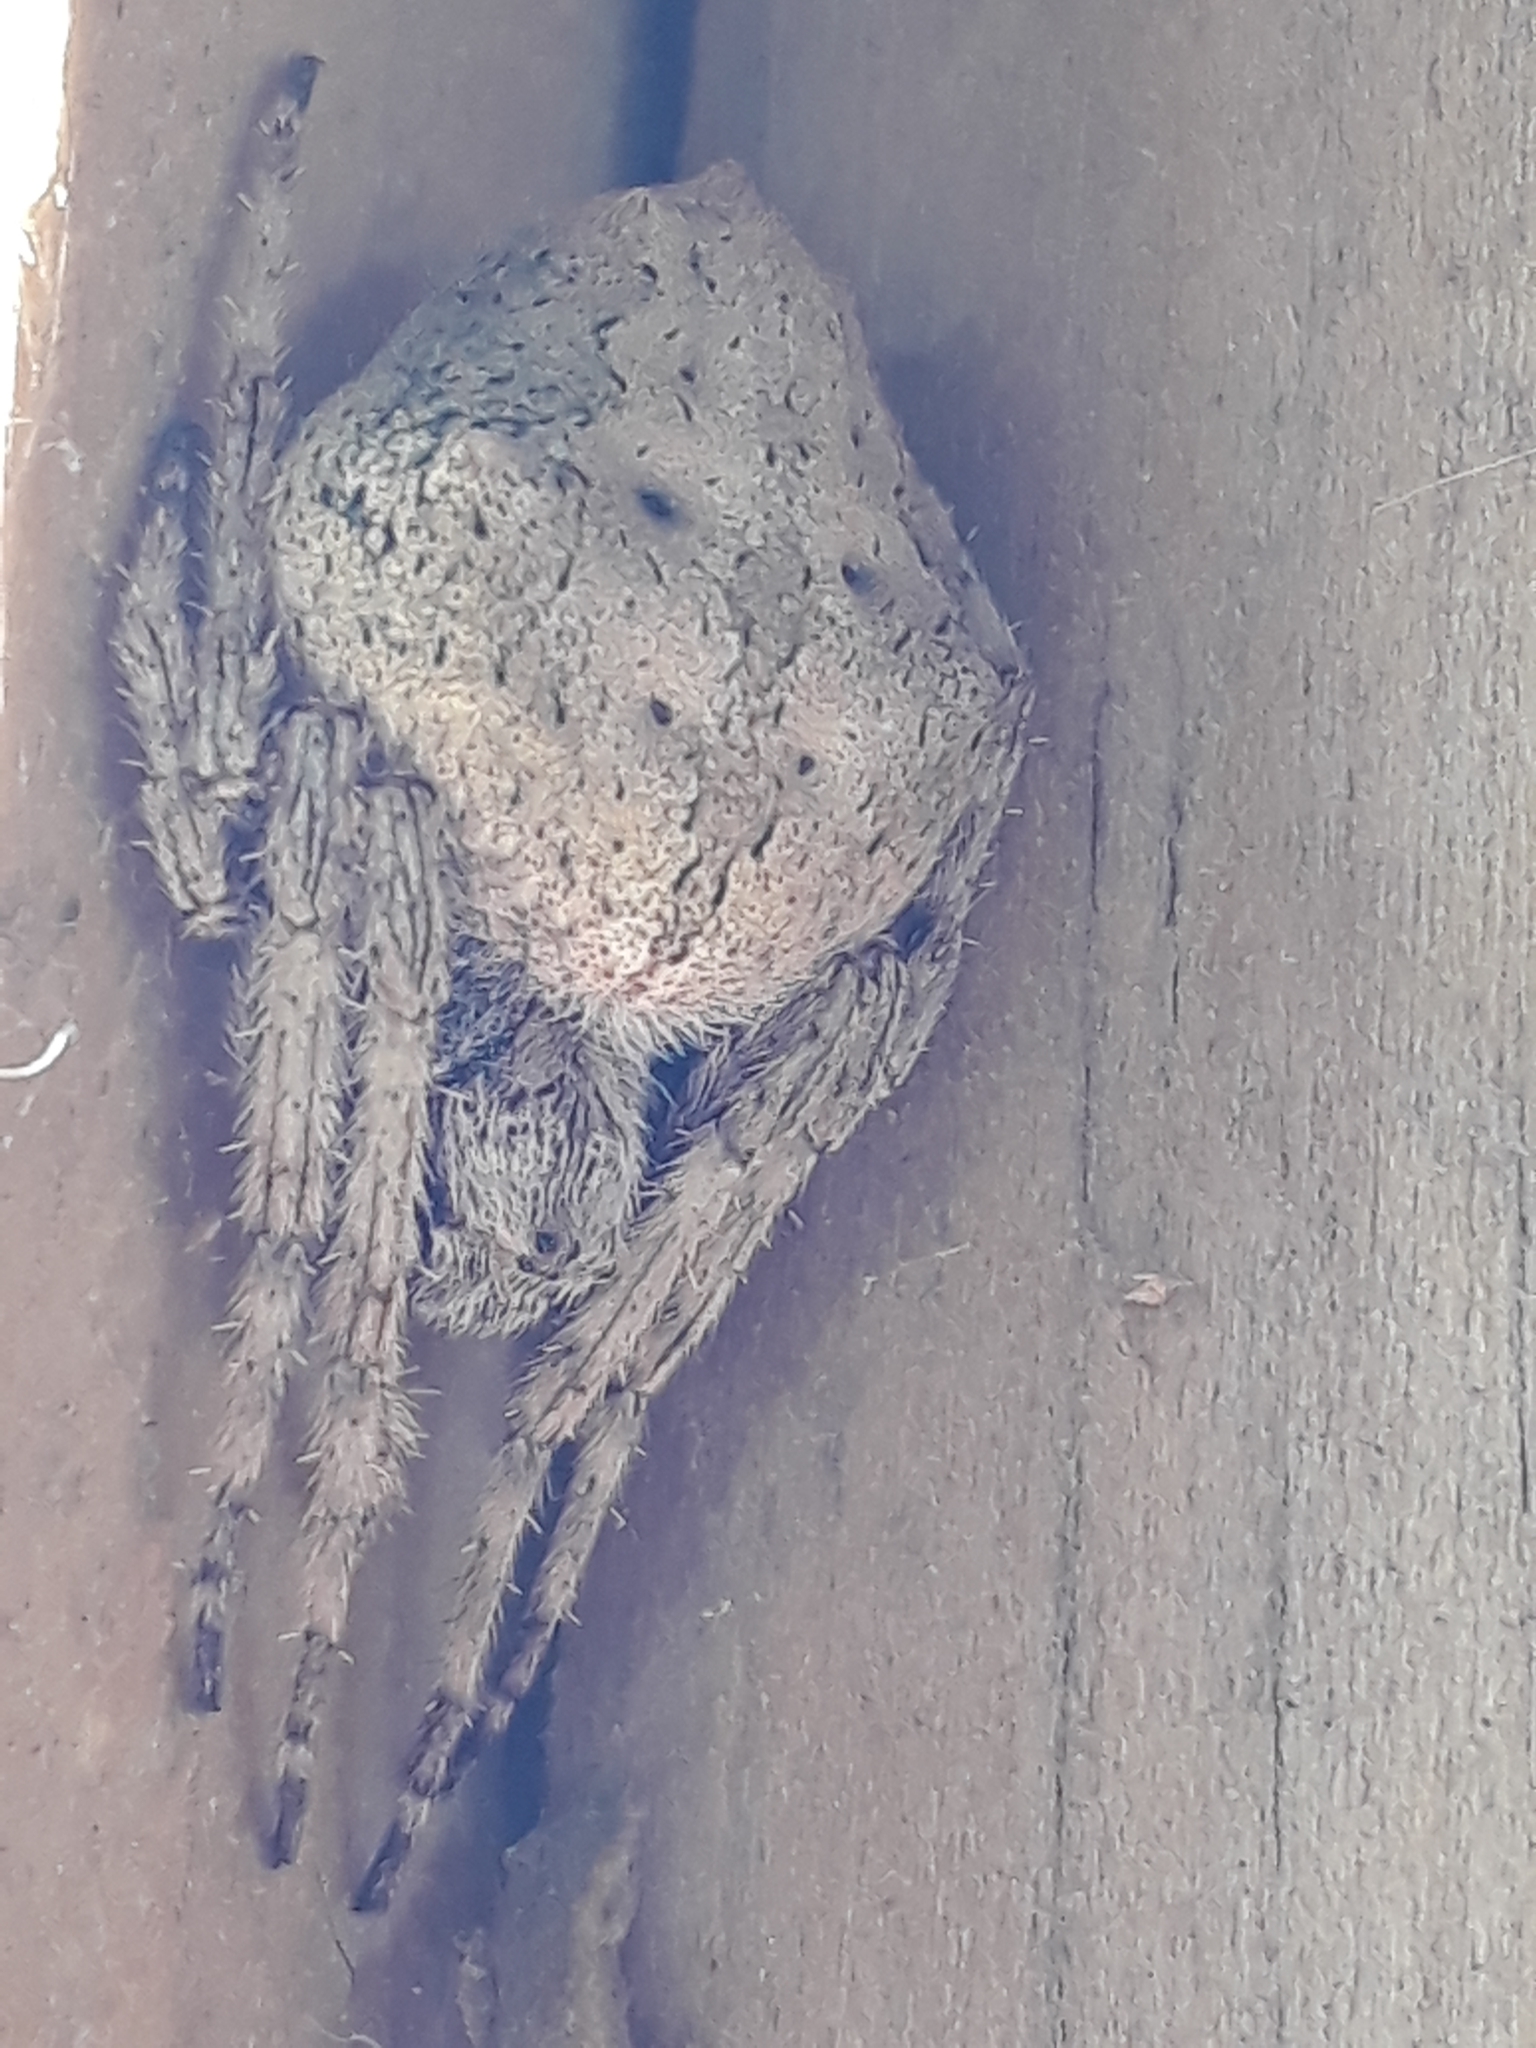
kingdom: Animalia
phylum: Arthropoda
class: Arachnida
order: Araneae
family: Araneidae
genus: Eriophora
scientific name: Eriophora pustulosa
